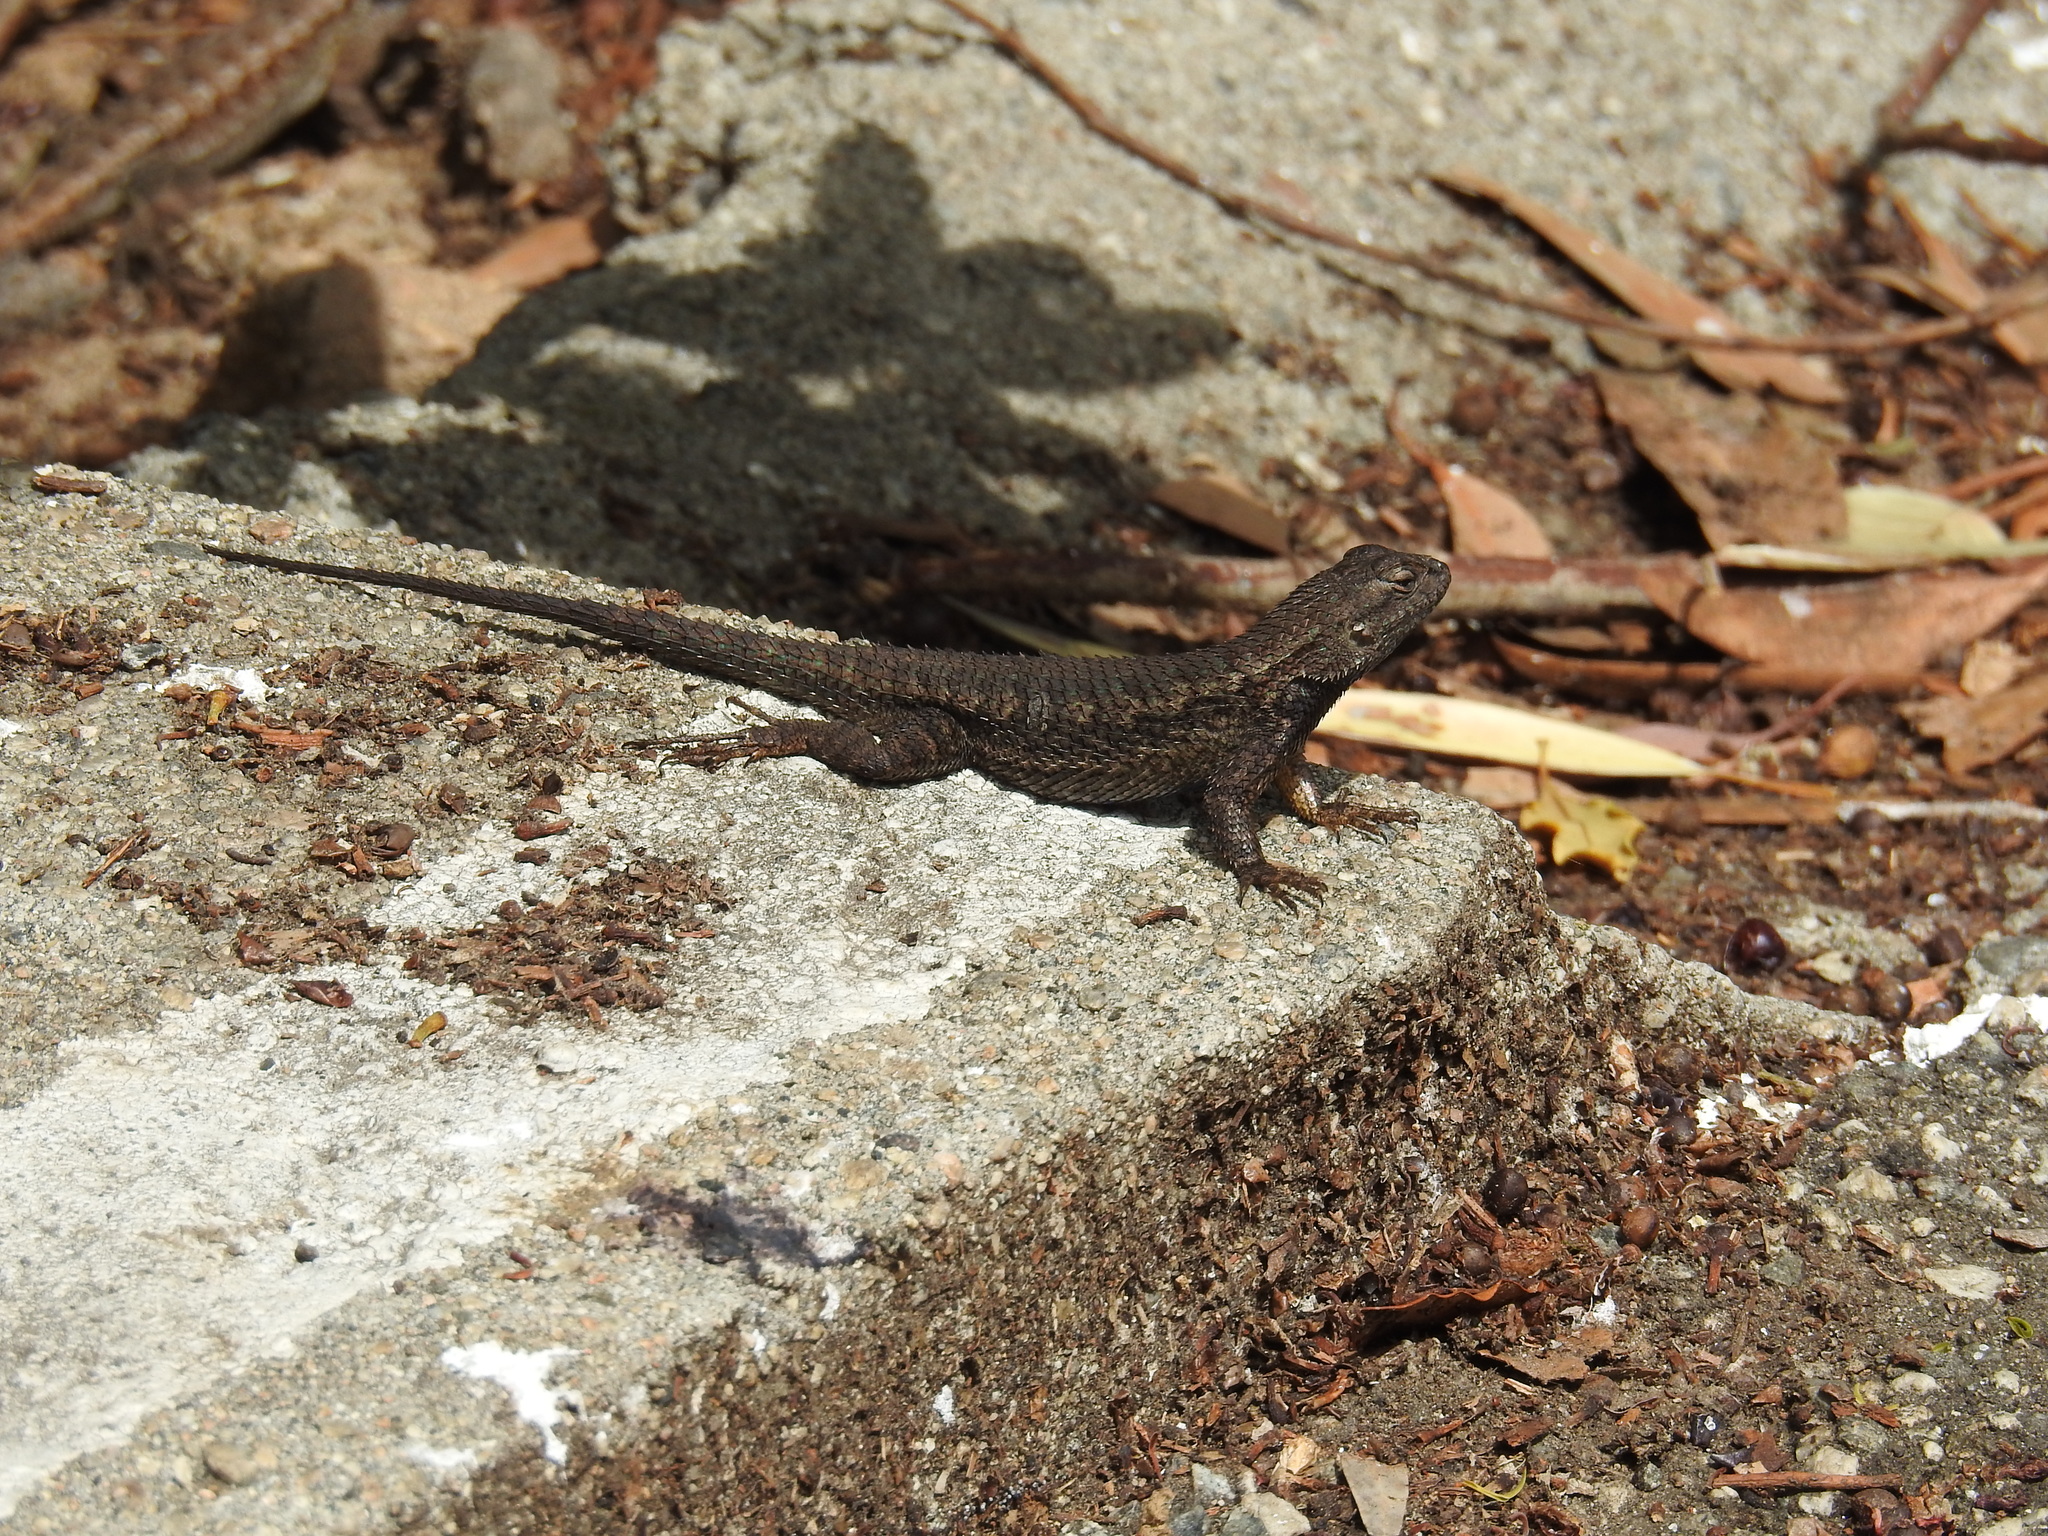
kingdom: Animalia
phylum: Chordata
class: Squamata
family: Phrynosomatidae
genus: Sceloporus
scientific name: Sceloporus occidentalis
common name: Western fence lizard
